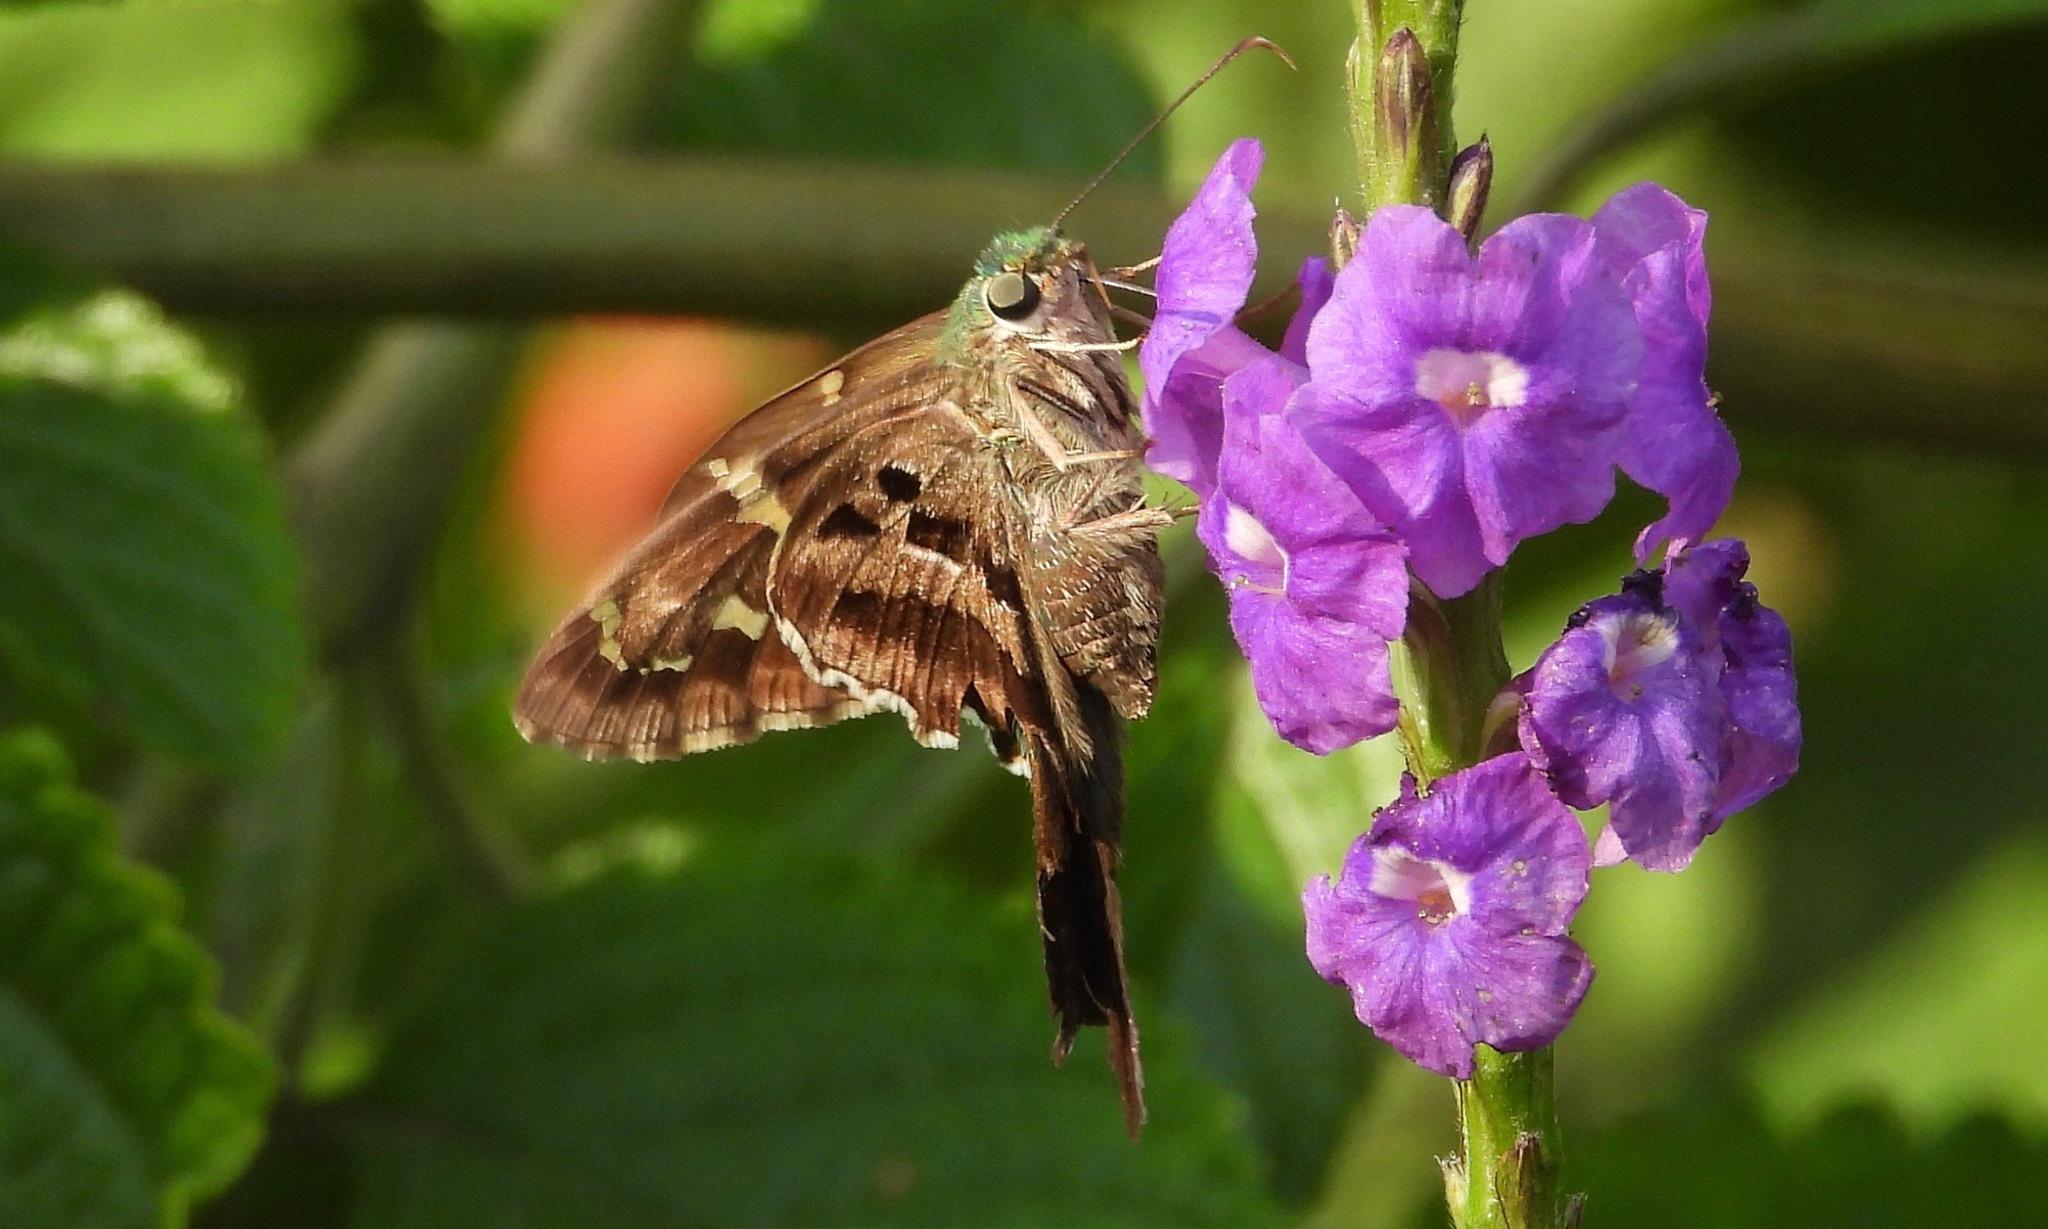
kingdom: Animalia
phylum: Arthropoda
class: Insecta
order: Lepidoptera
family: Hesperiidae
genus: Urbanus
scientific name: Urbanus proteus
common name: Long-tailed skipper
